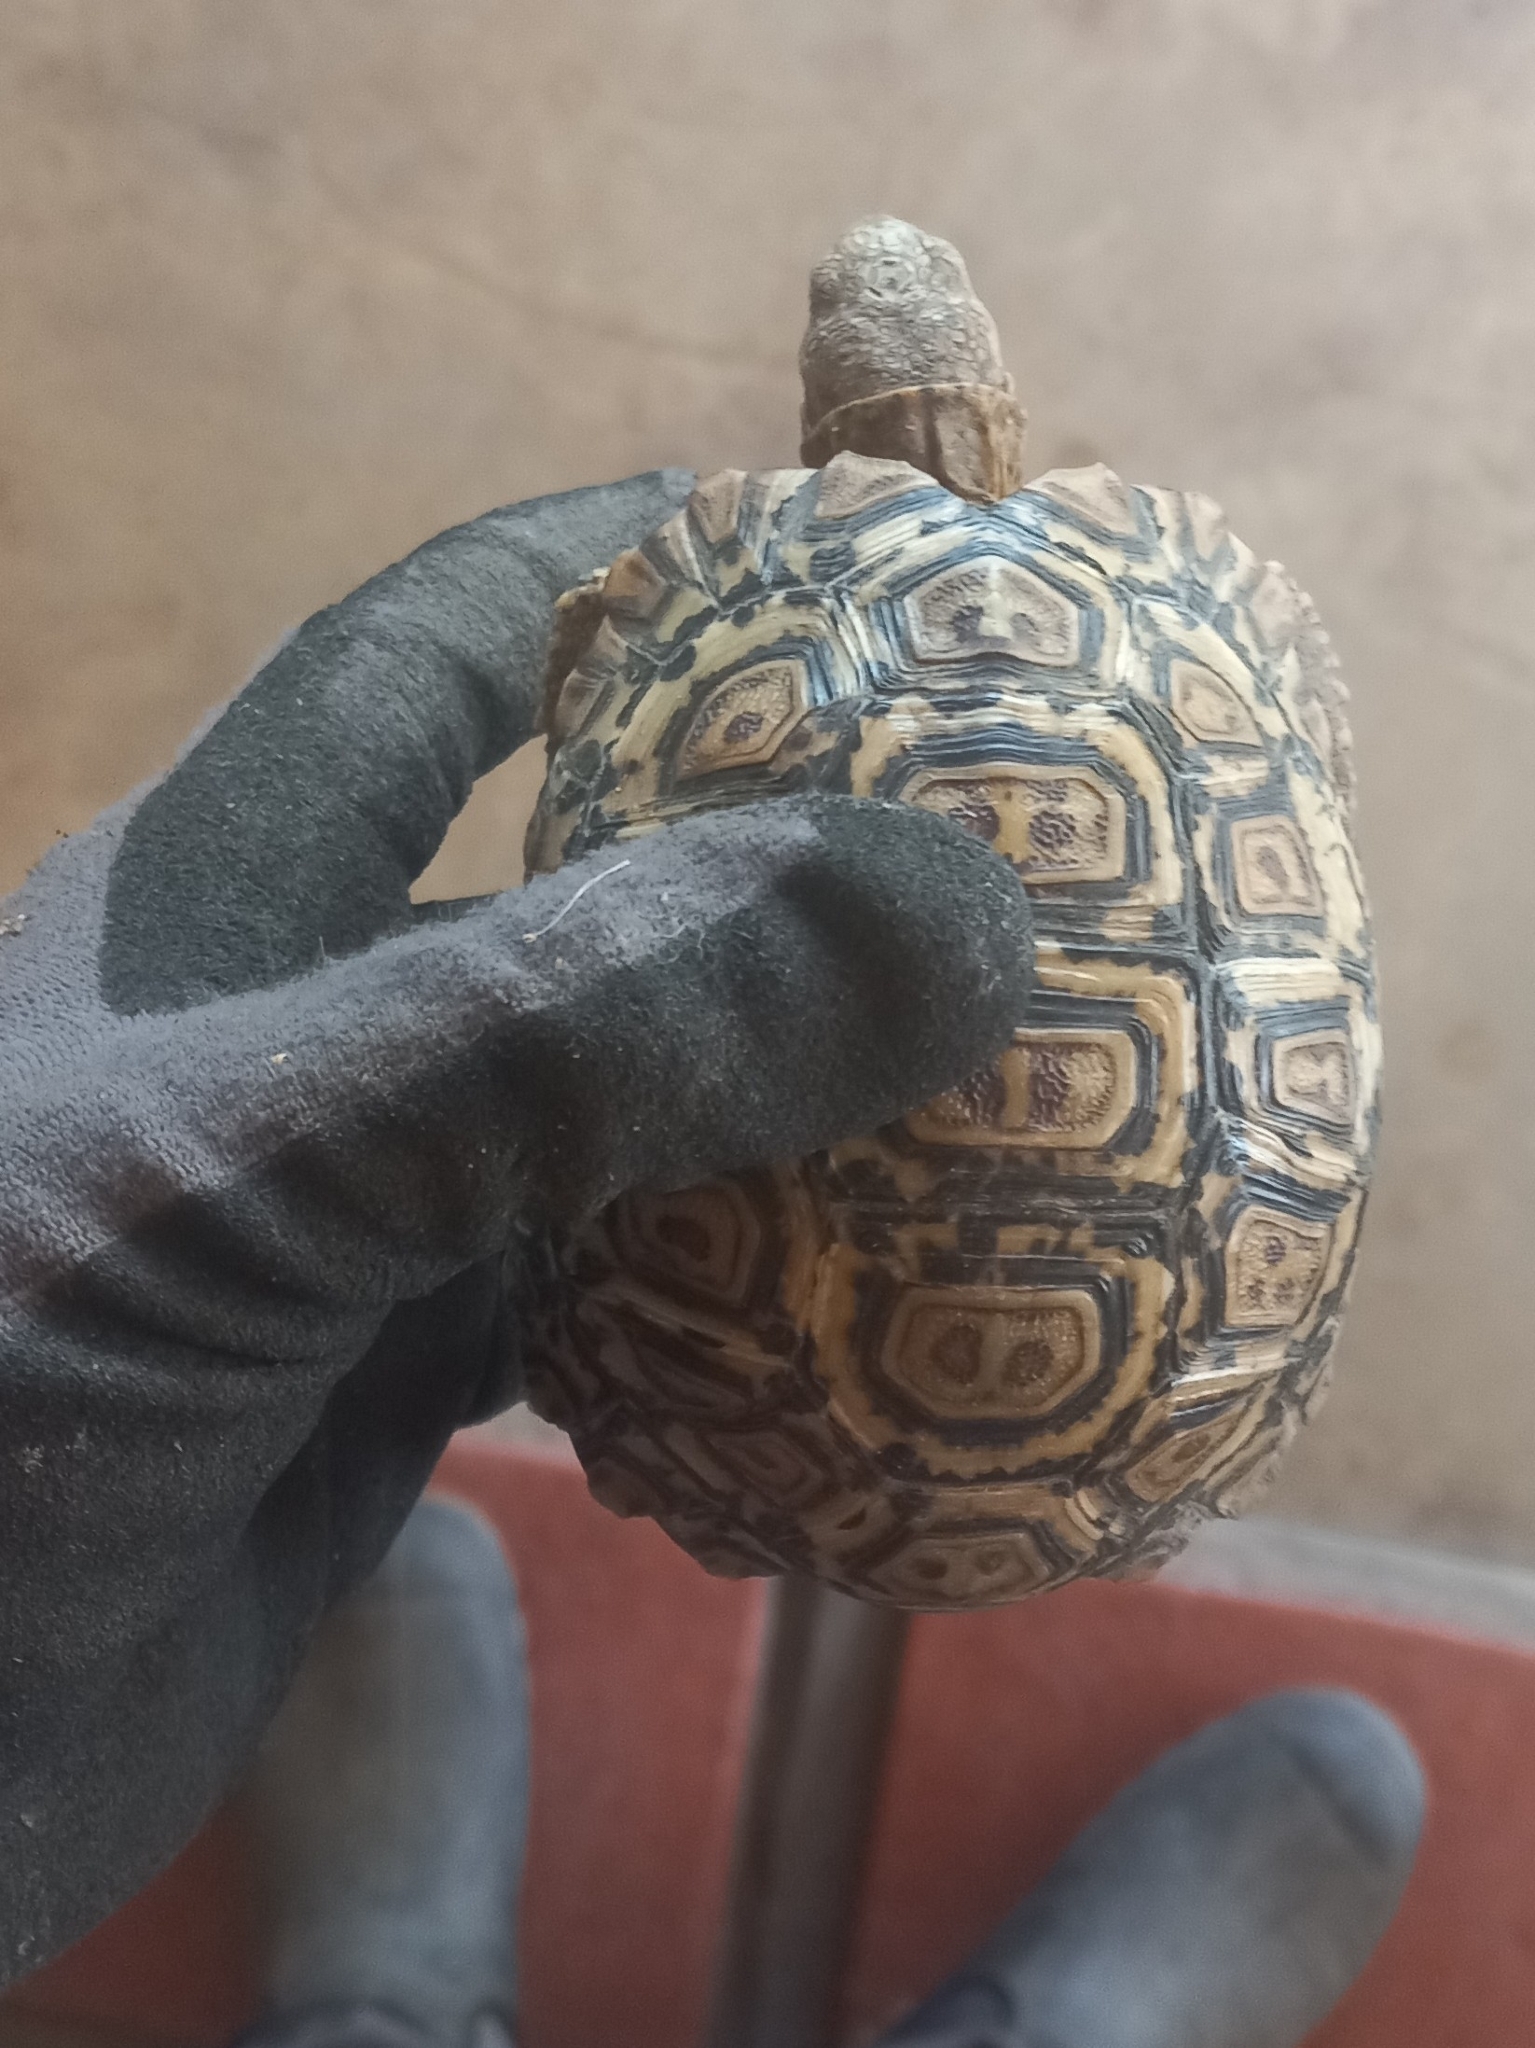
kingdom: Animalia
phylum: Chordata
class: Testudines
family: Testudinidae
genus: Stigmochelys
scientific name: Stigmochelys pardalis
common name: Leopard tortoise
